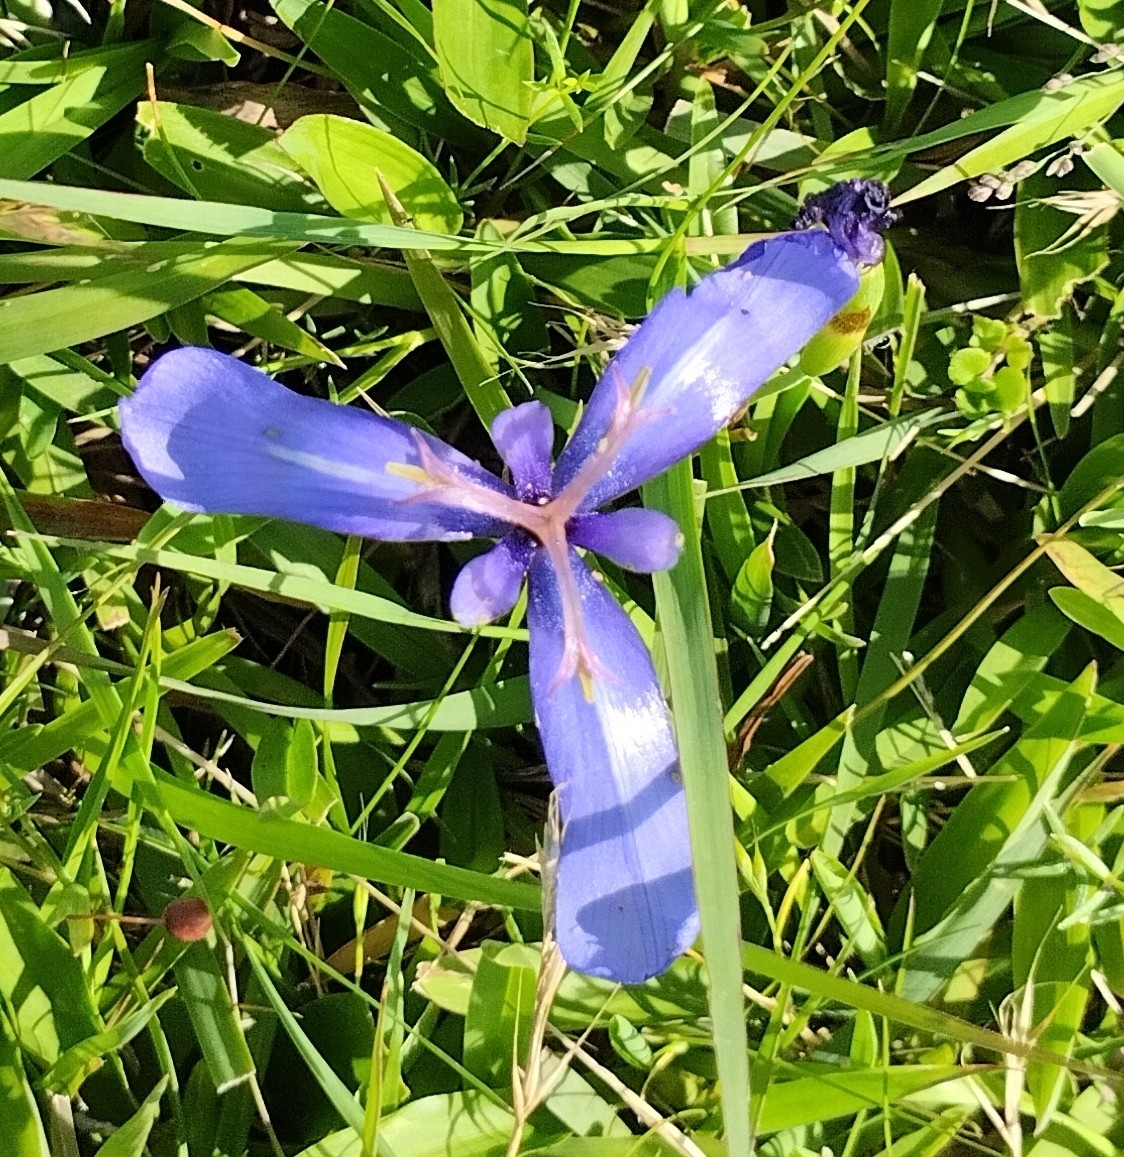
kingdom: Plantae
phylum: Tracheophyta
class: Liliopsida
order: Asparagales
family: Iridaceae
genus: Herbertia
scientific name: Herbertia pulchella
